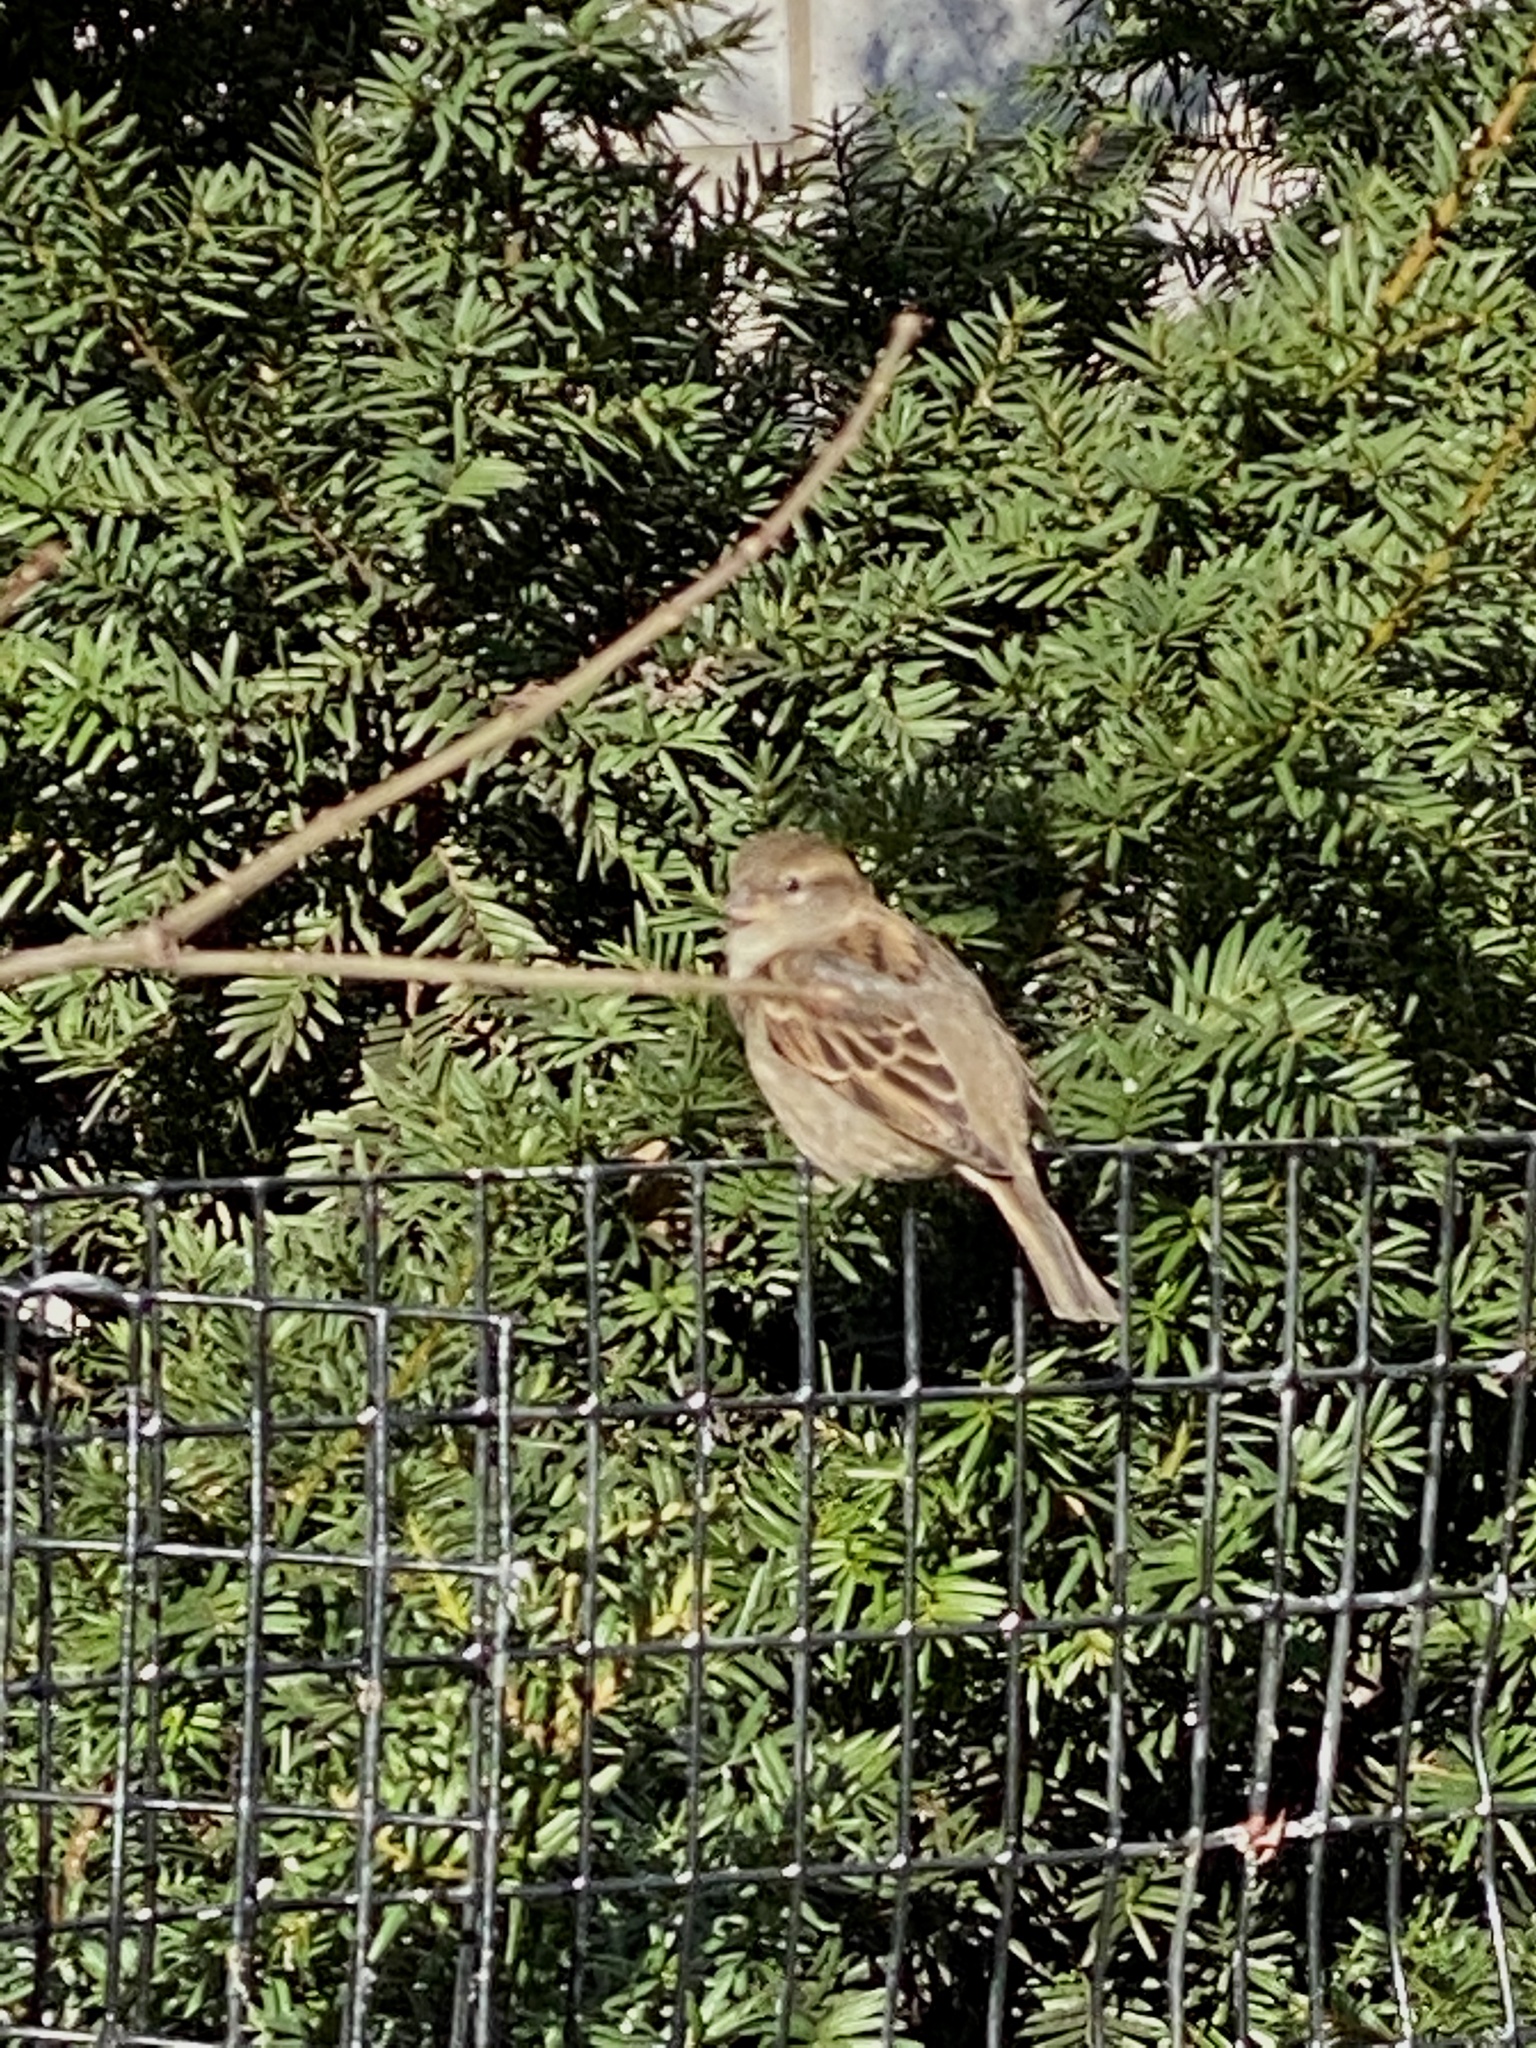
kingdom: Animalia
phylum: Chordata
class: Aves
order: Passeriformes
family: Passeridae
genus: Passer
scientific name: Passer domesticus
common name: House sparrow
